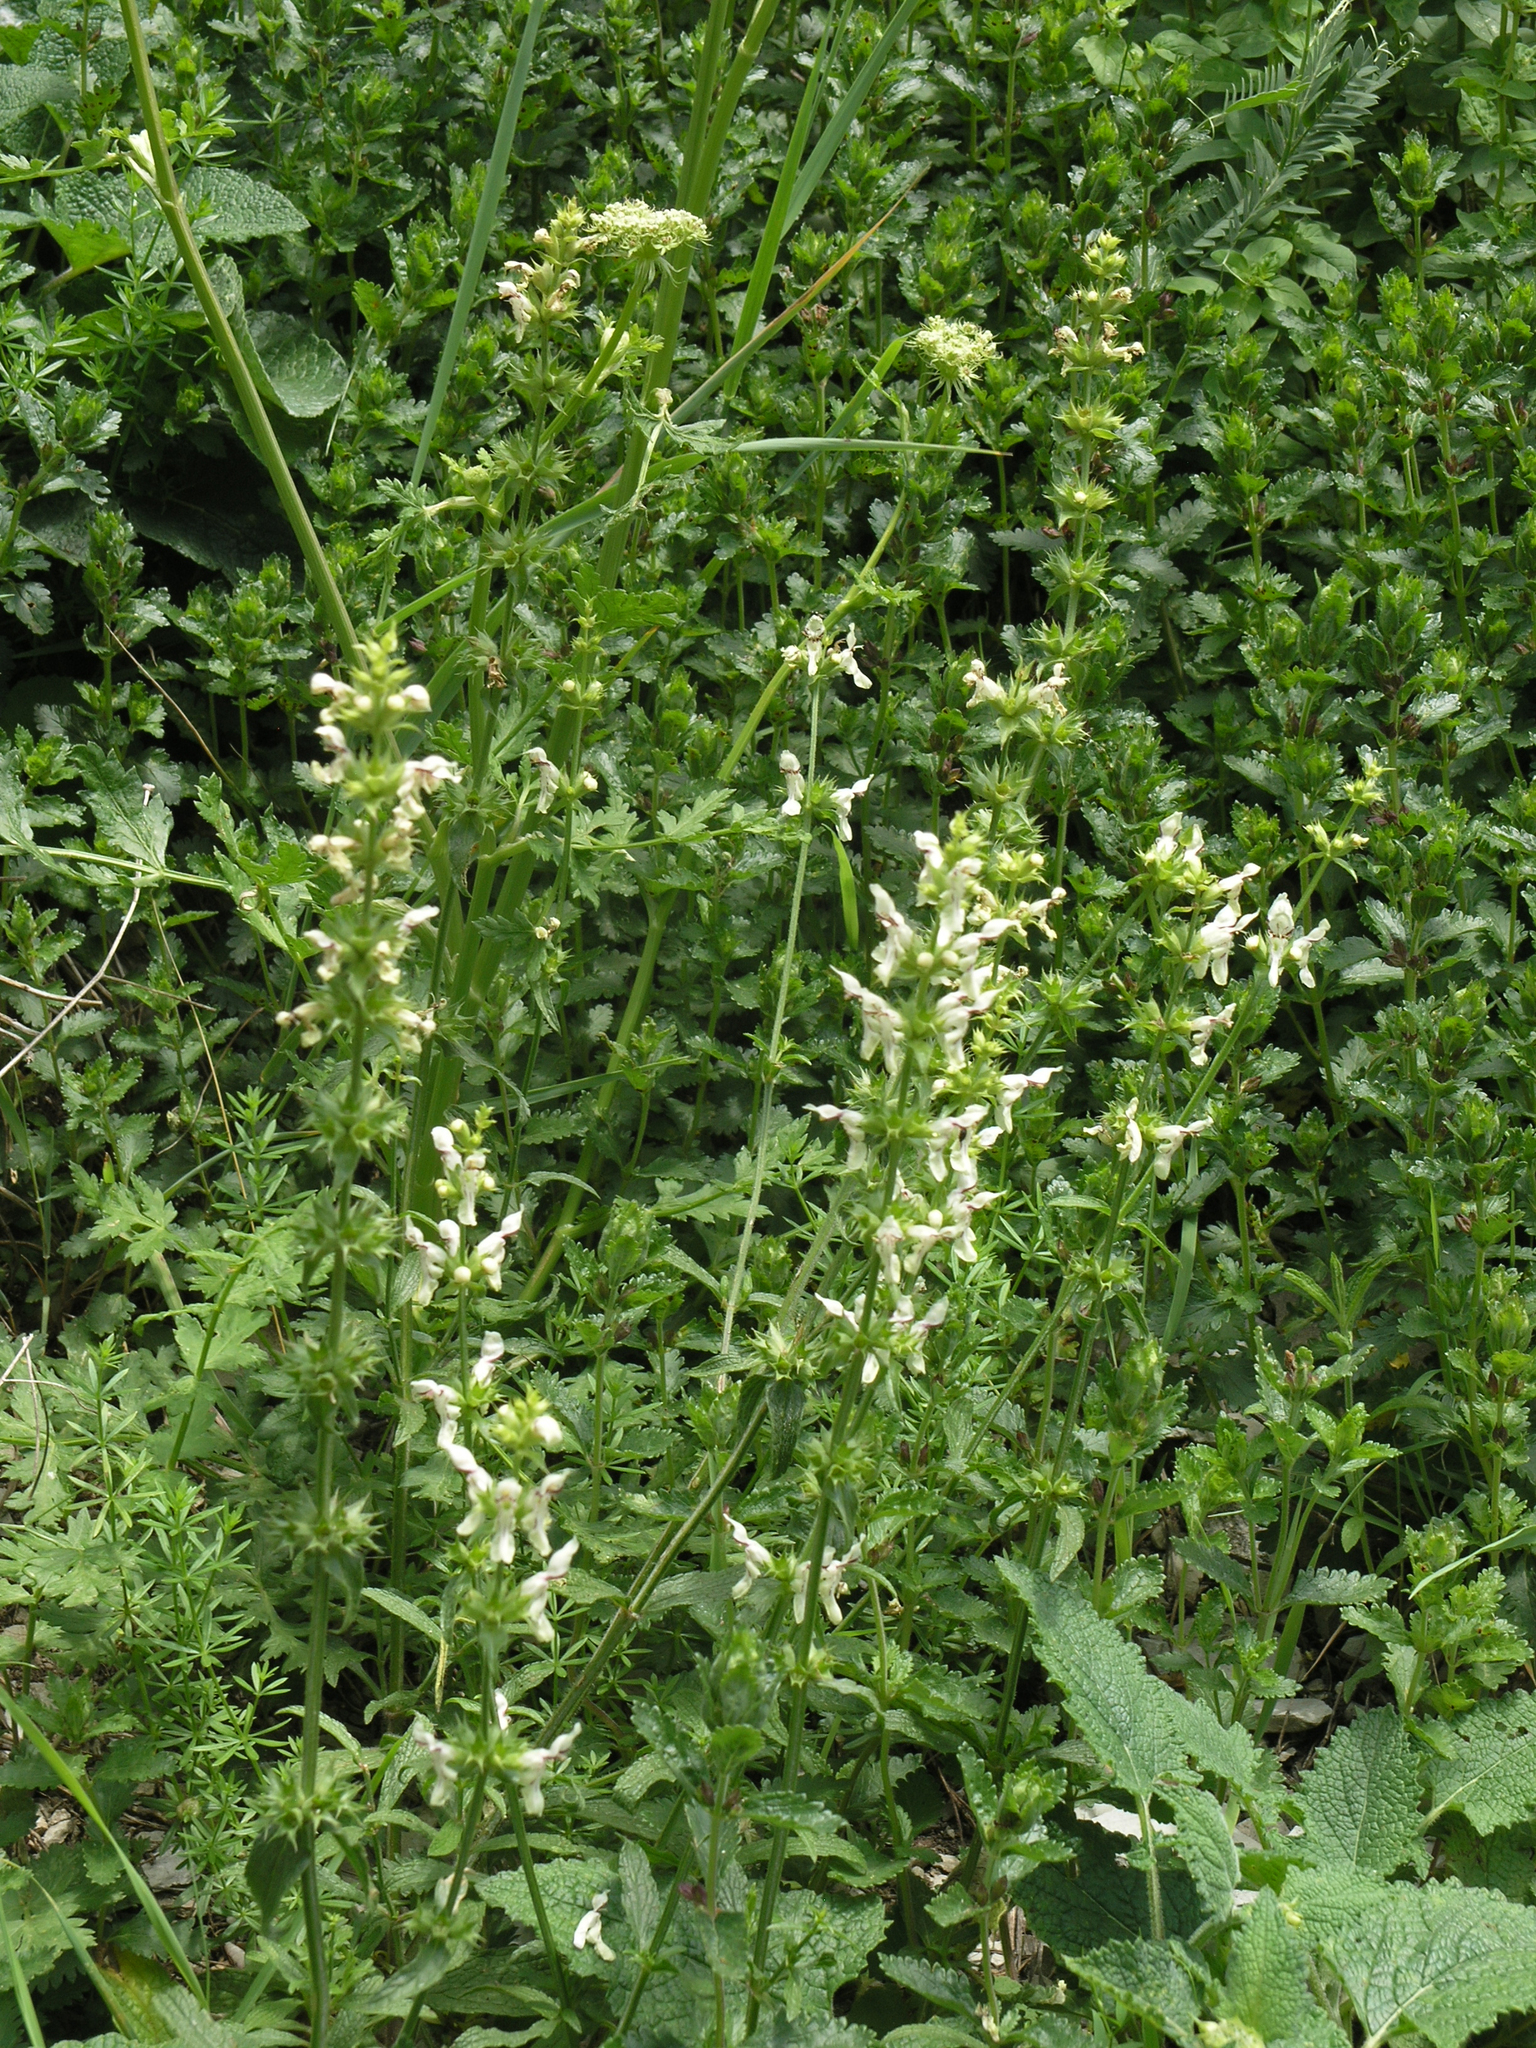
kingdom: Plantae
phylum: Tracheophyta
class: Magnoliopsida
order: Lamiales
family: Lamiaceae
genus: Stachys
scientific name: Stachys atherocalyx
